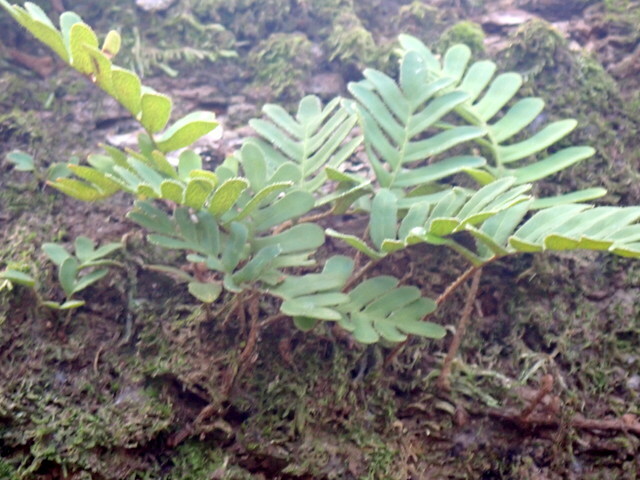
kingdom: Plantae
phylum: Tracheophyta
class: Polypodiopsida
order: Polypodiales
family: Polypodiaceae
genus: Pleopeltis
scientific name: Pleopeltis michauxiana
